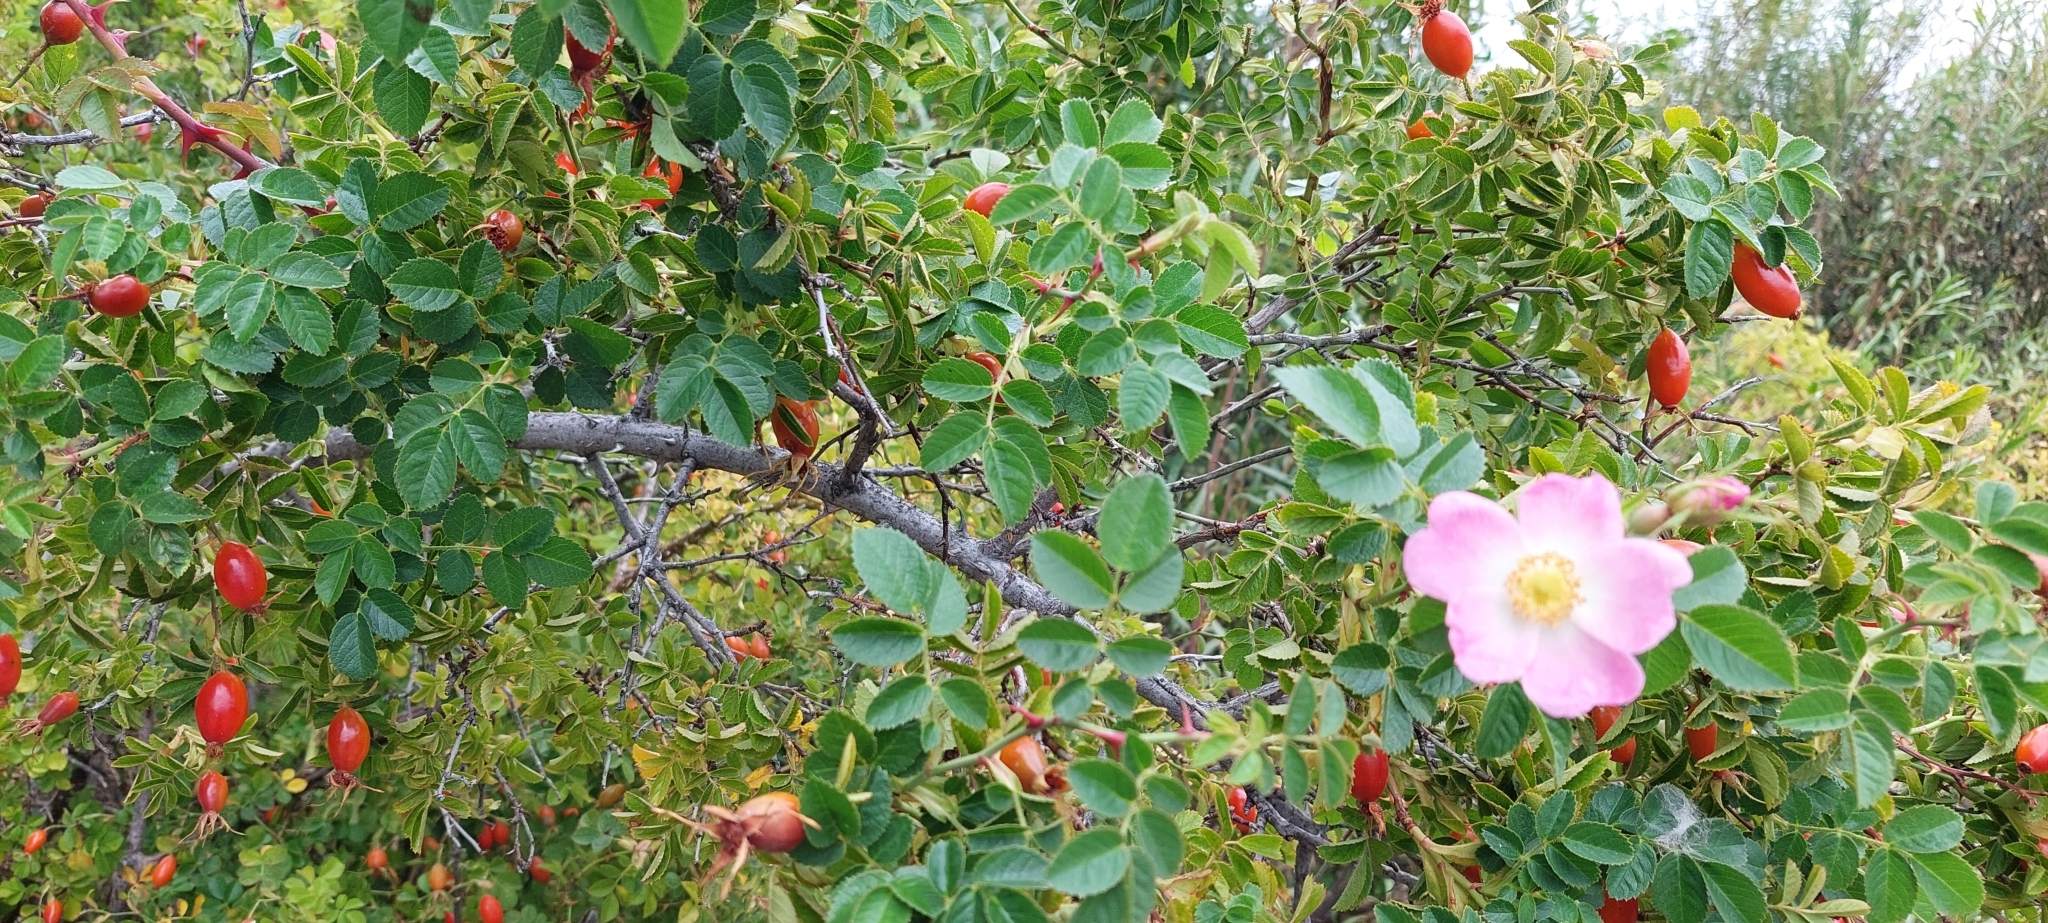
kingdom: Plantae
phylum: Tracheophyta
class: Magnoliopsida
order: Rosales
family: Rosaceae
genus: Rosa
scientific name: Rosa rubiginosa
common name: Sweet-briar
